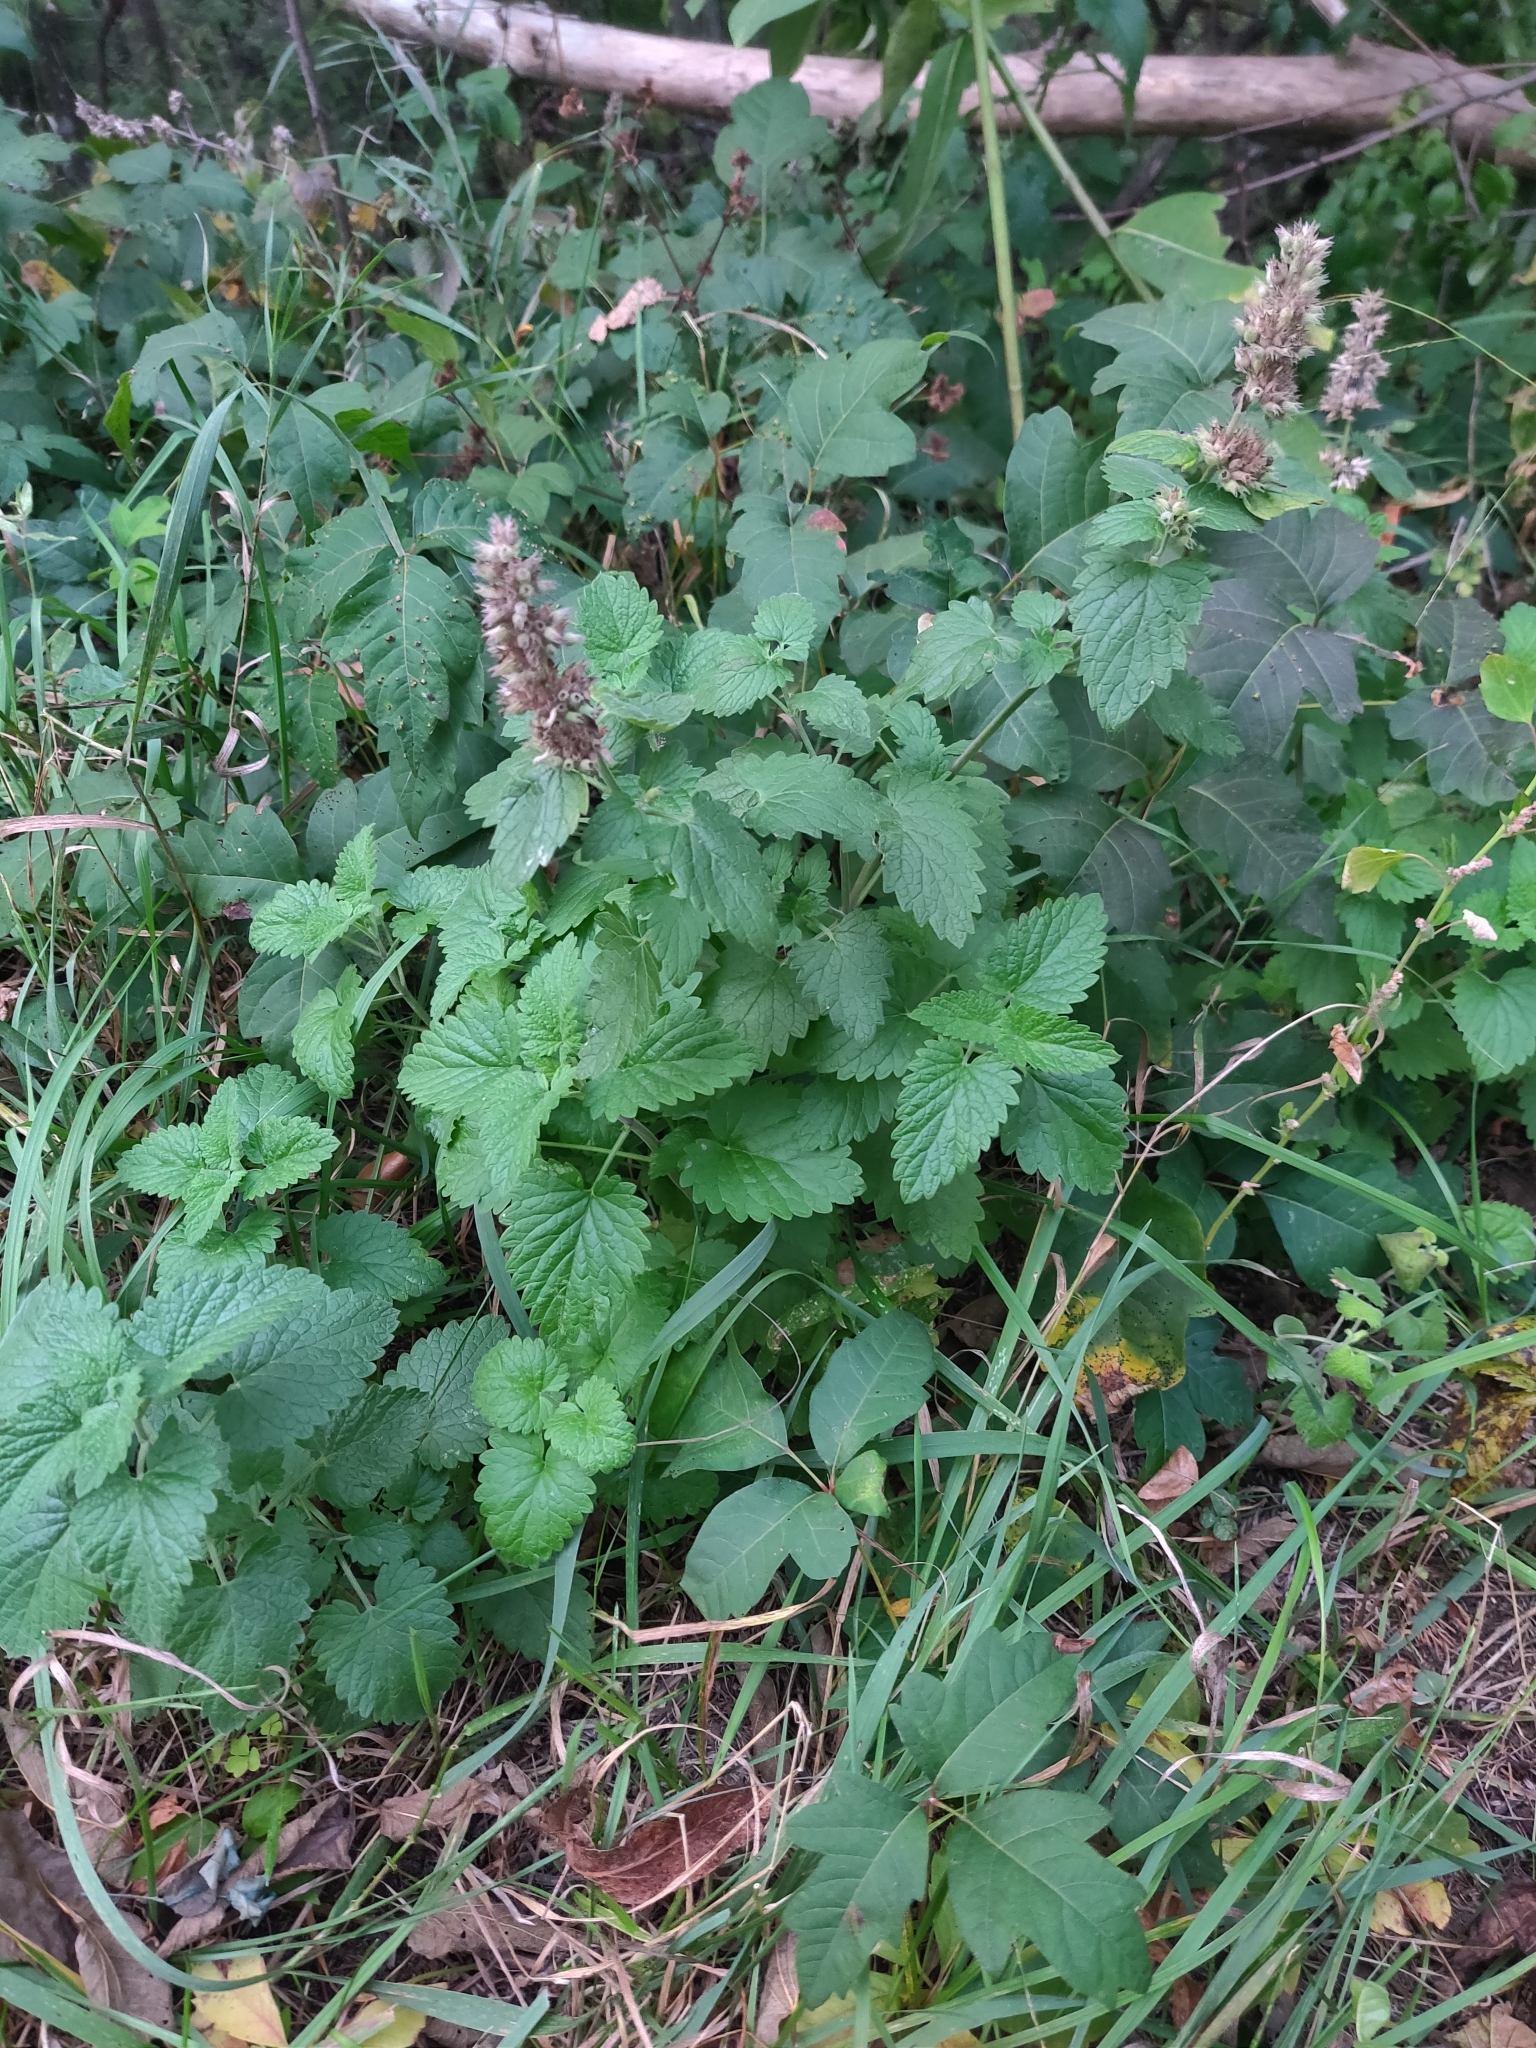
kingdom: Plantae
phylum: Tracheophyta
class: Magnoliopsida
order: Lamiales
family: Lamiaceae
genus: Nepeta
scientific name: Nepeta cataria
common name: Catnip
